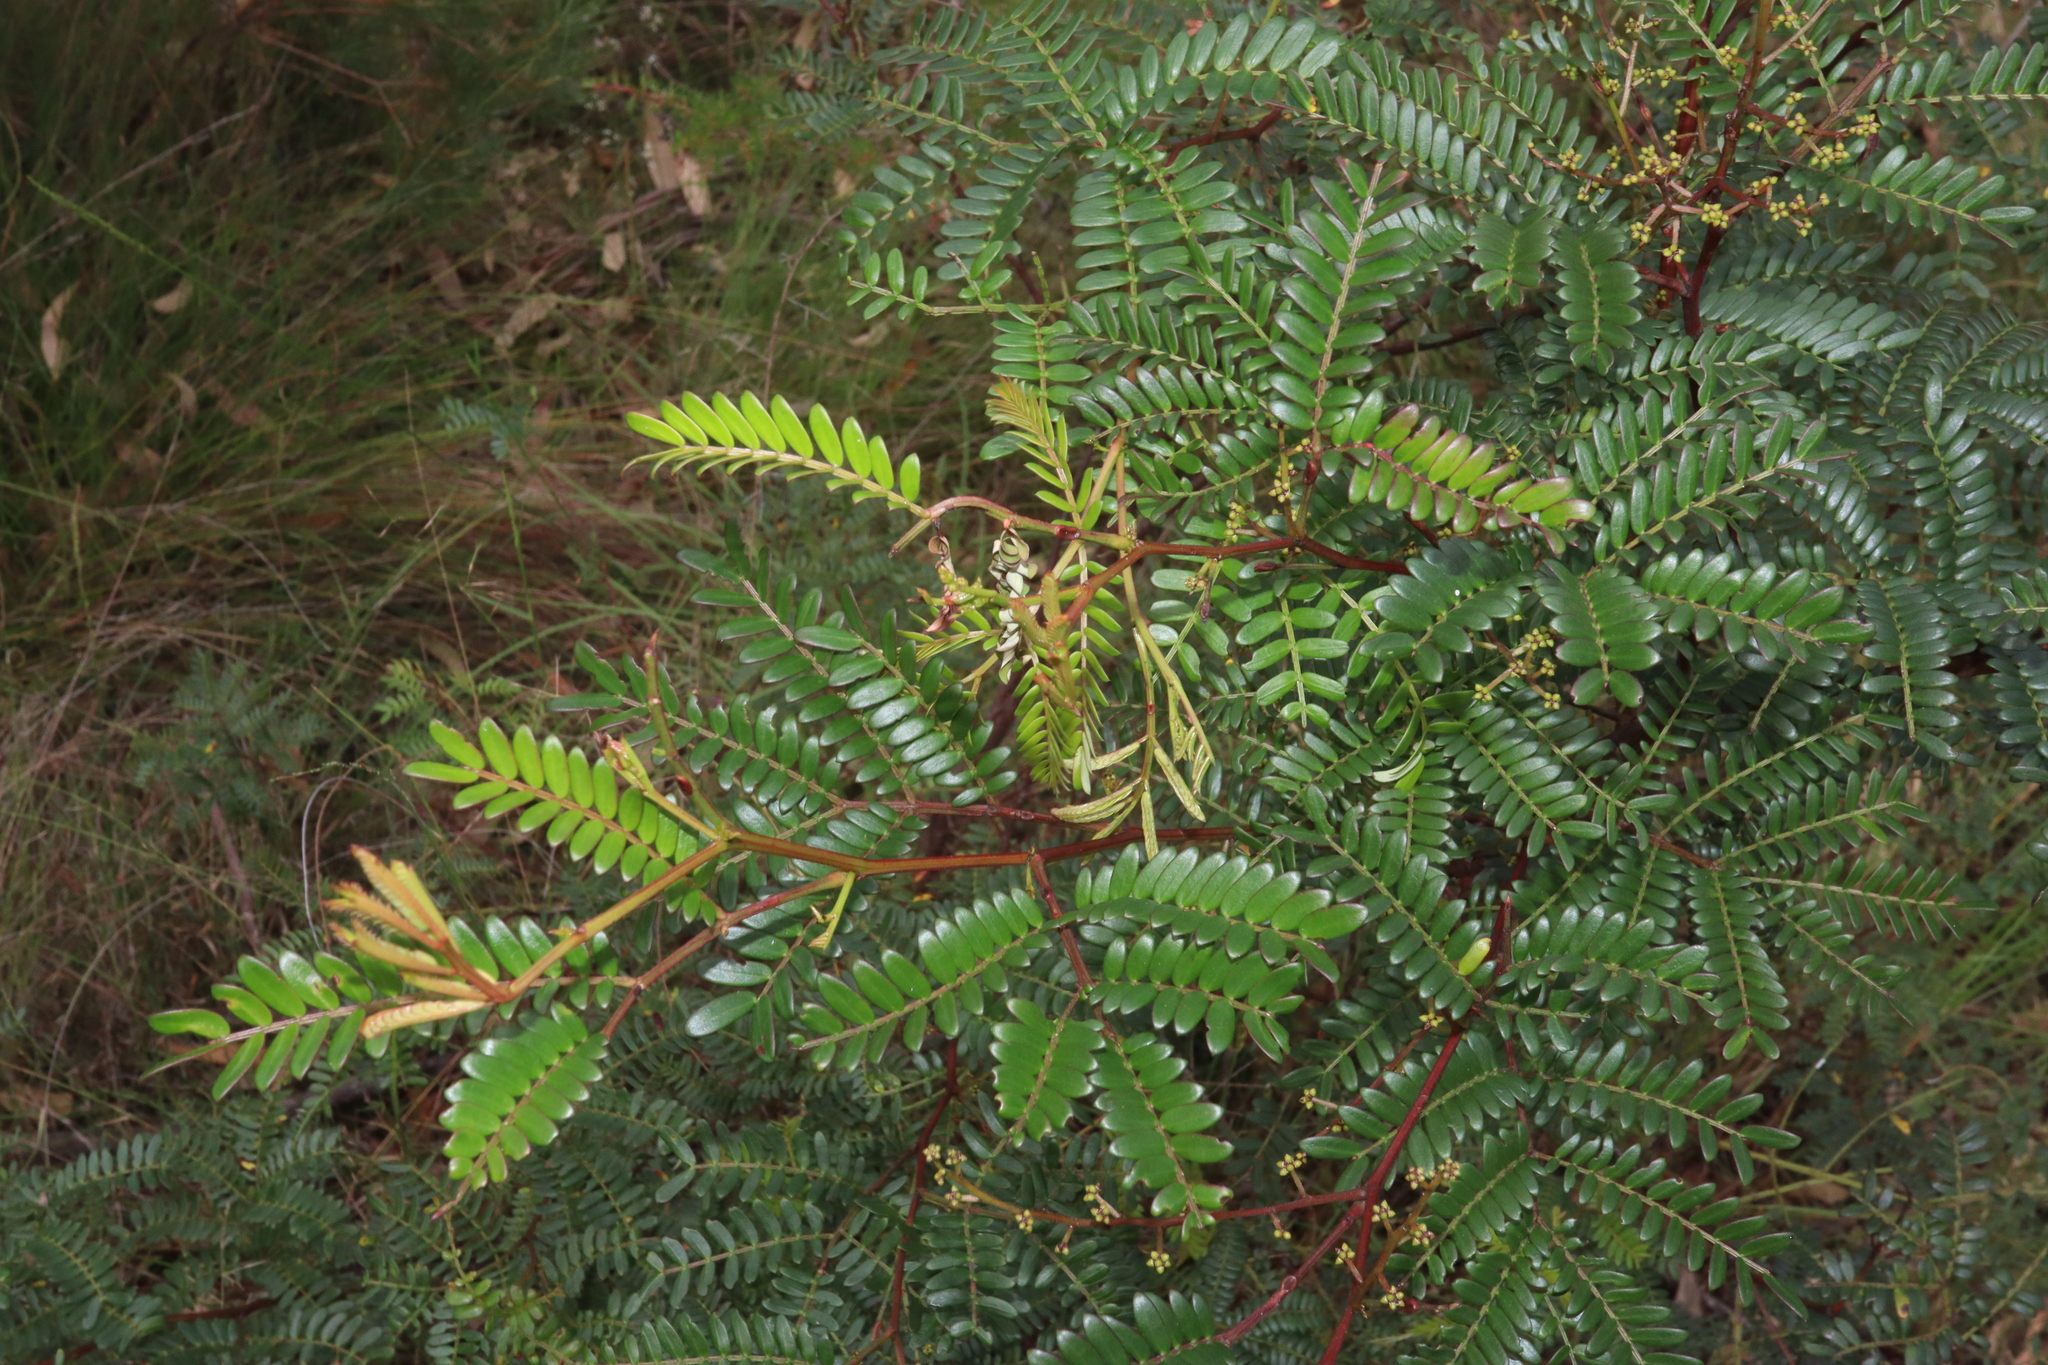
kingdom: Plantae
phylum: Tracheophyta
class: Magnoliopsida
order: Fabales
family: Fabaceae
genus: Acacia
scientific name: Acacia terminalis
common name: Cedar wattle
